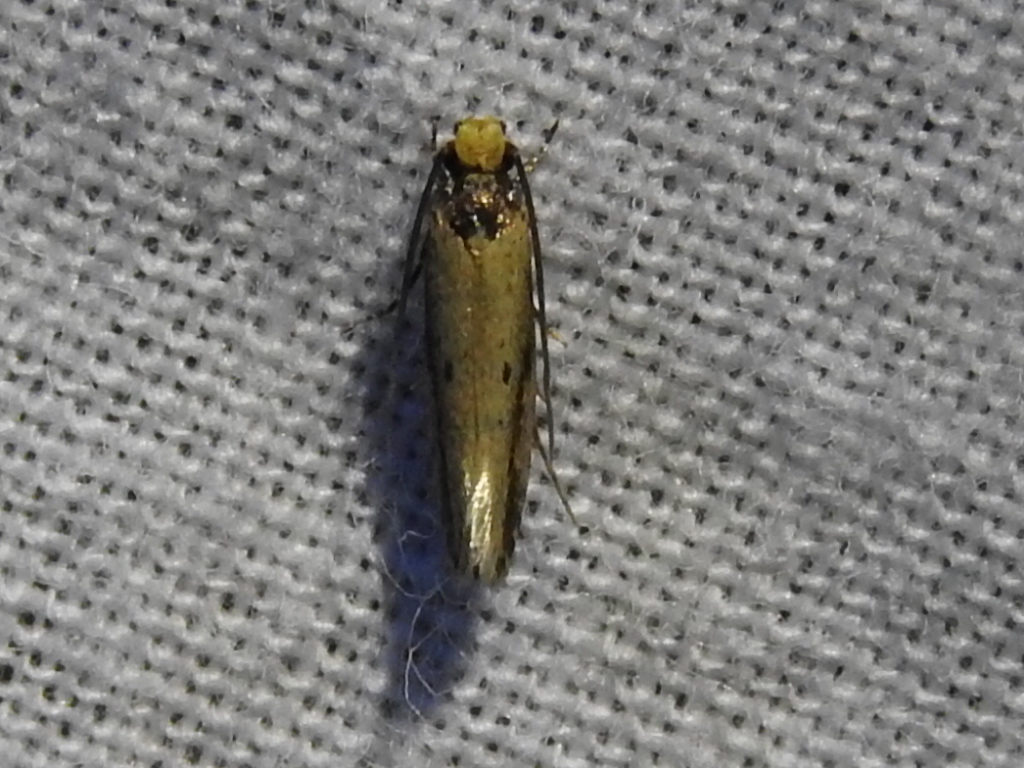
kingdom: Animalia
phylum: Arthropoda
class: Insecta
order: Lepidoptera
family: Tineidae
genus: Tinea
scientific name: Tinea apicimaculella
